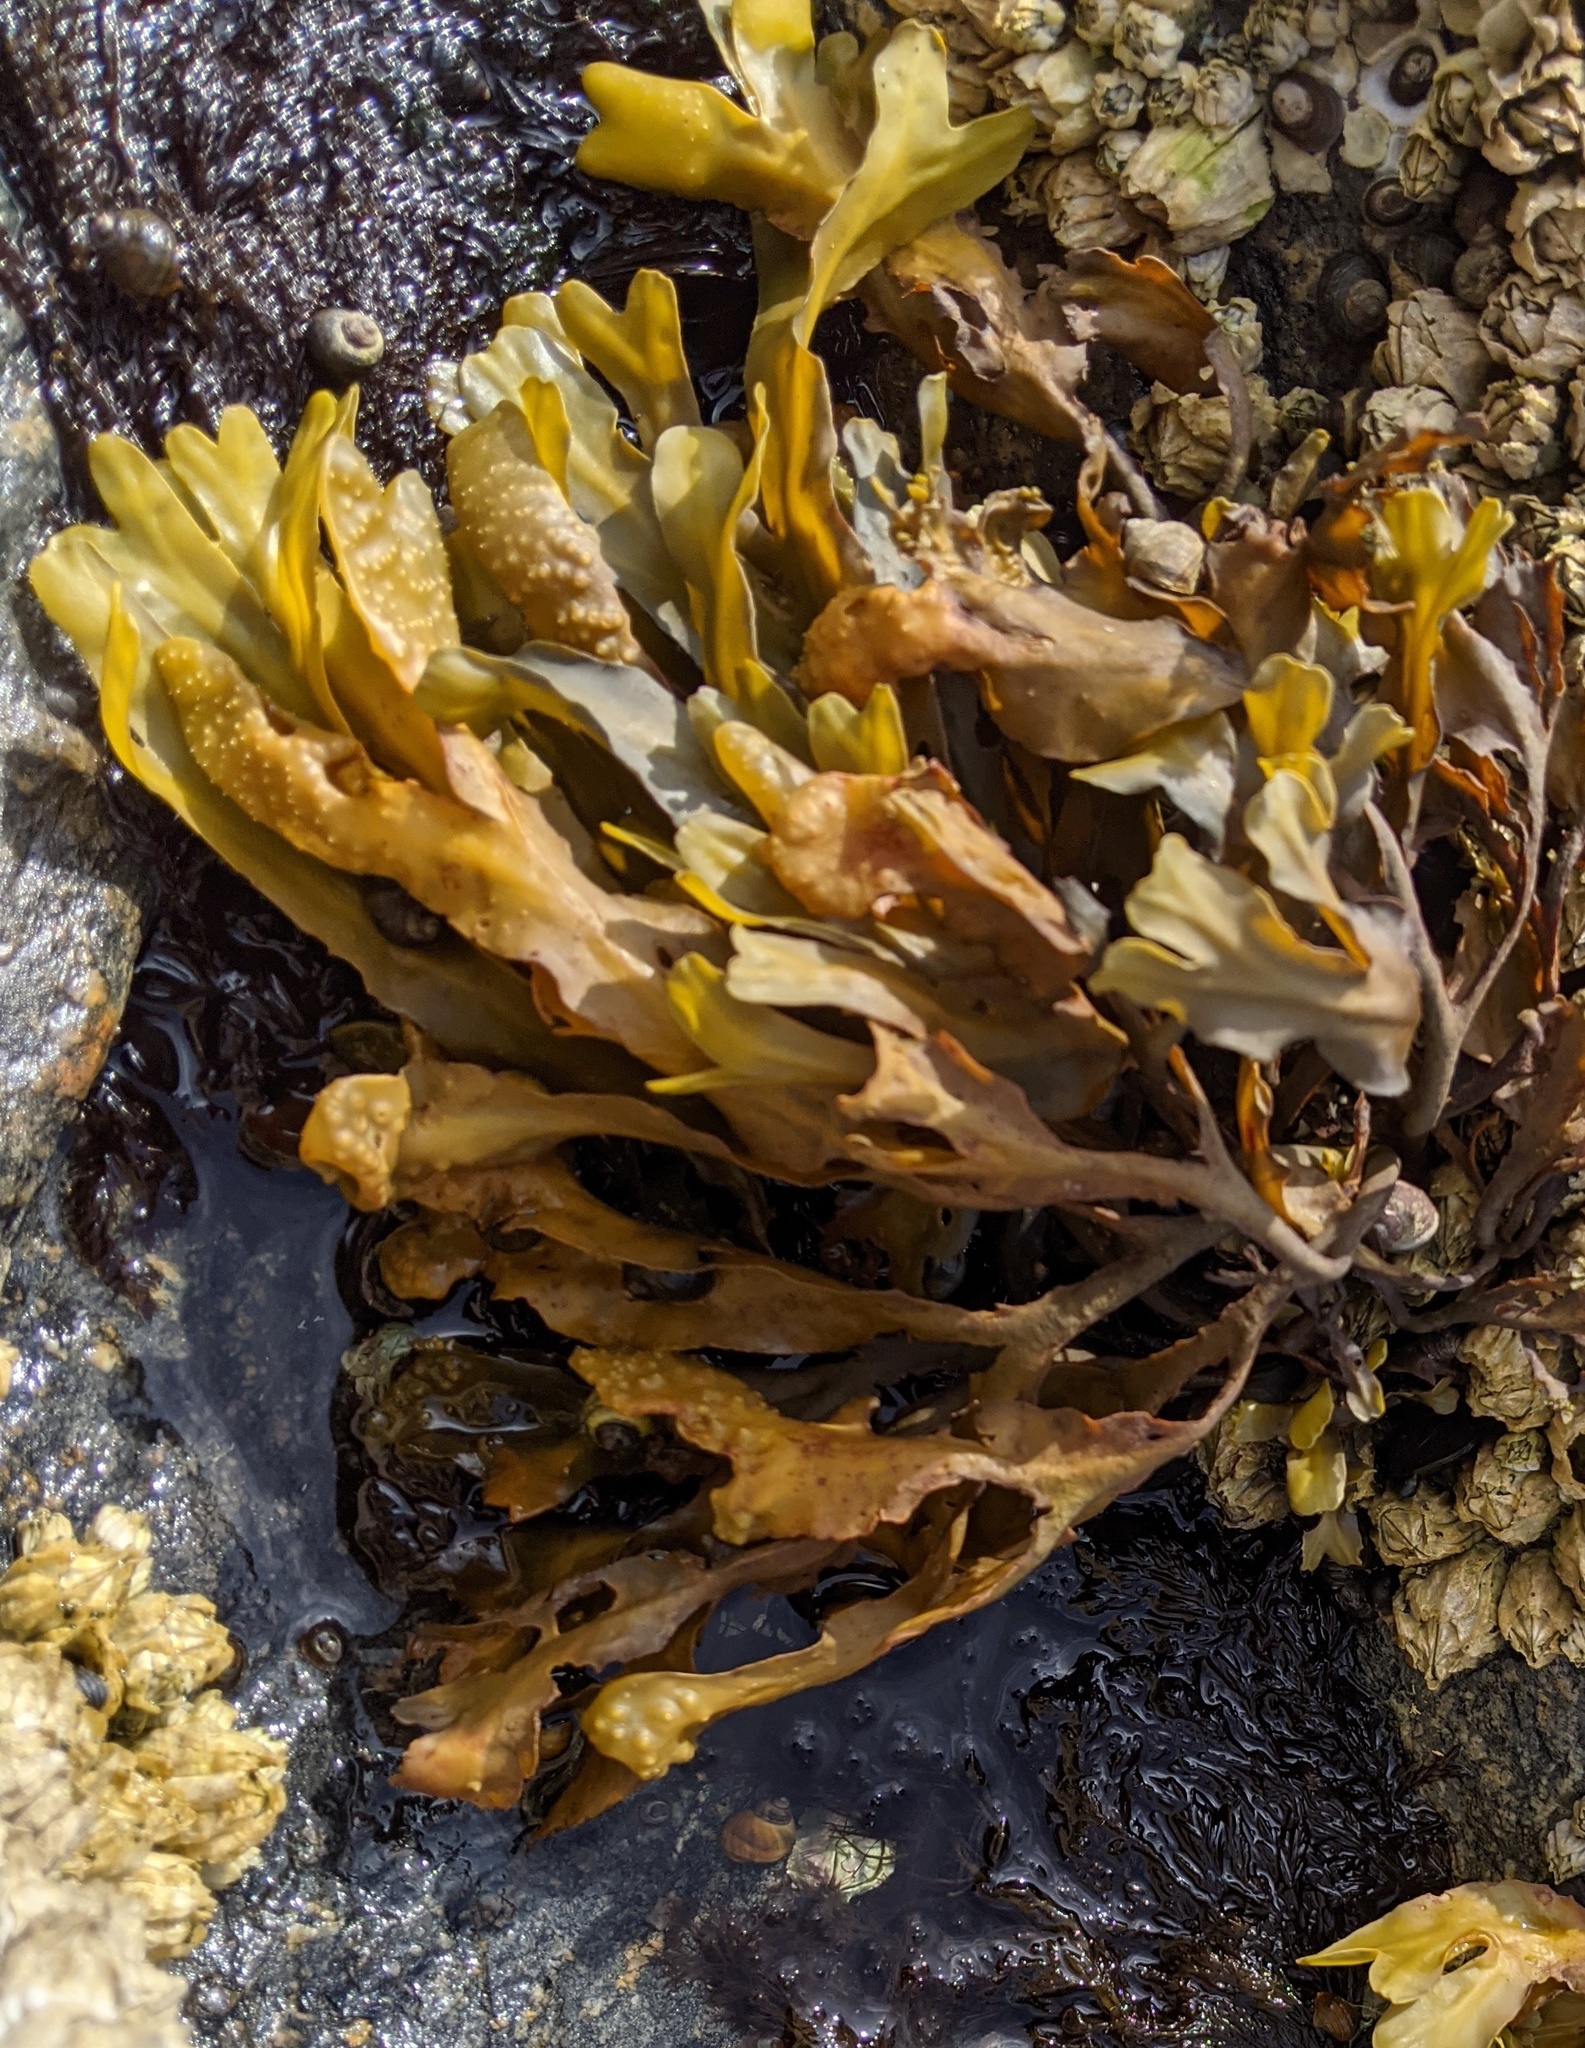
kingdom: Chromista
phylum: Ochrophyta
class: Phaeophyceae
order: Fucales
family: Fucaceae
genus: Fucus
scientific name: Fucus distichus
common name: Rockweed
